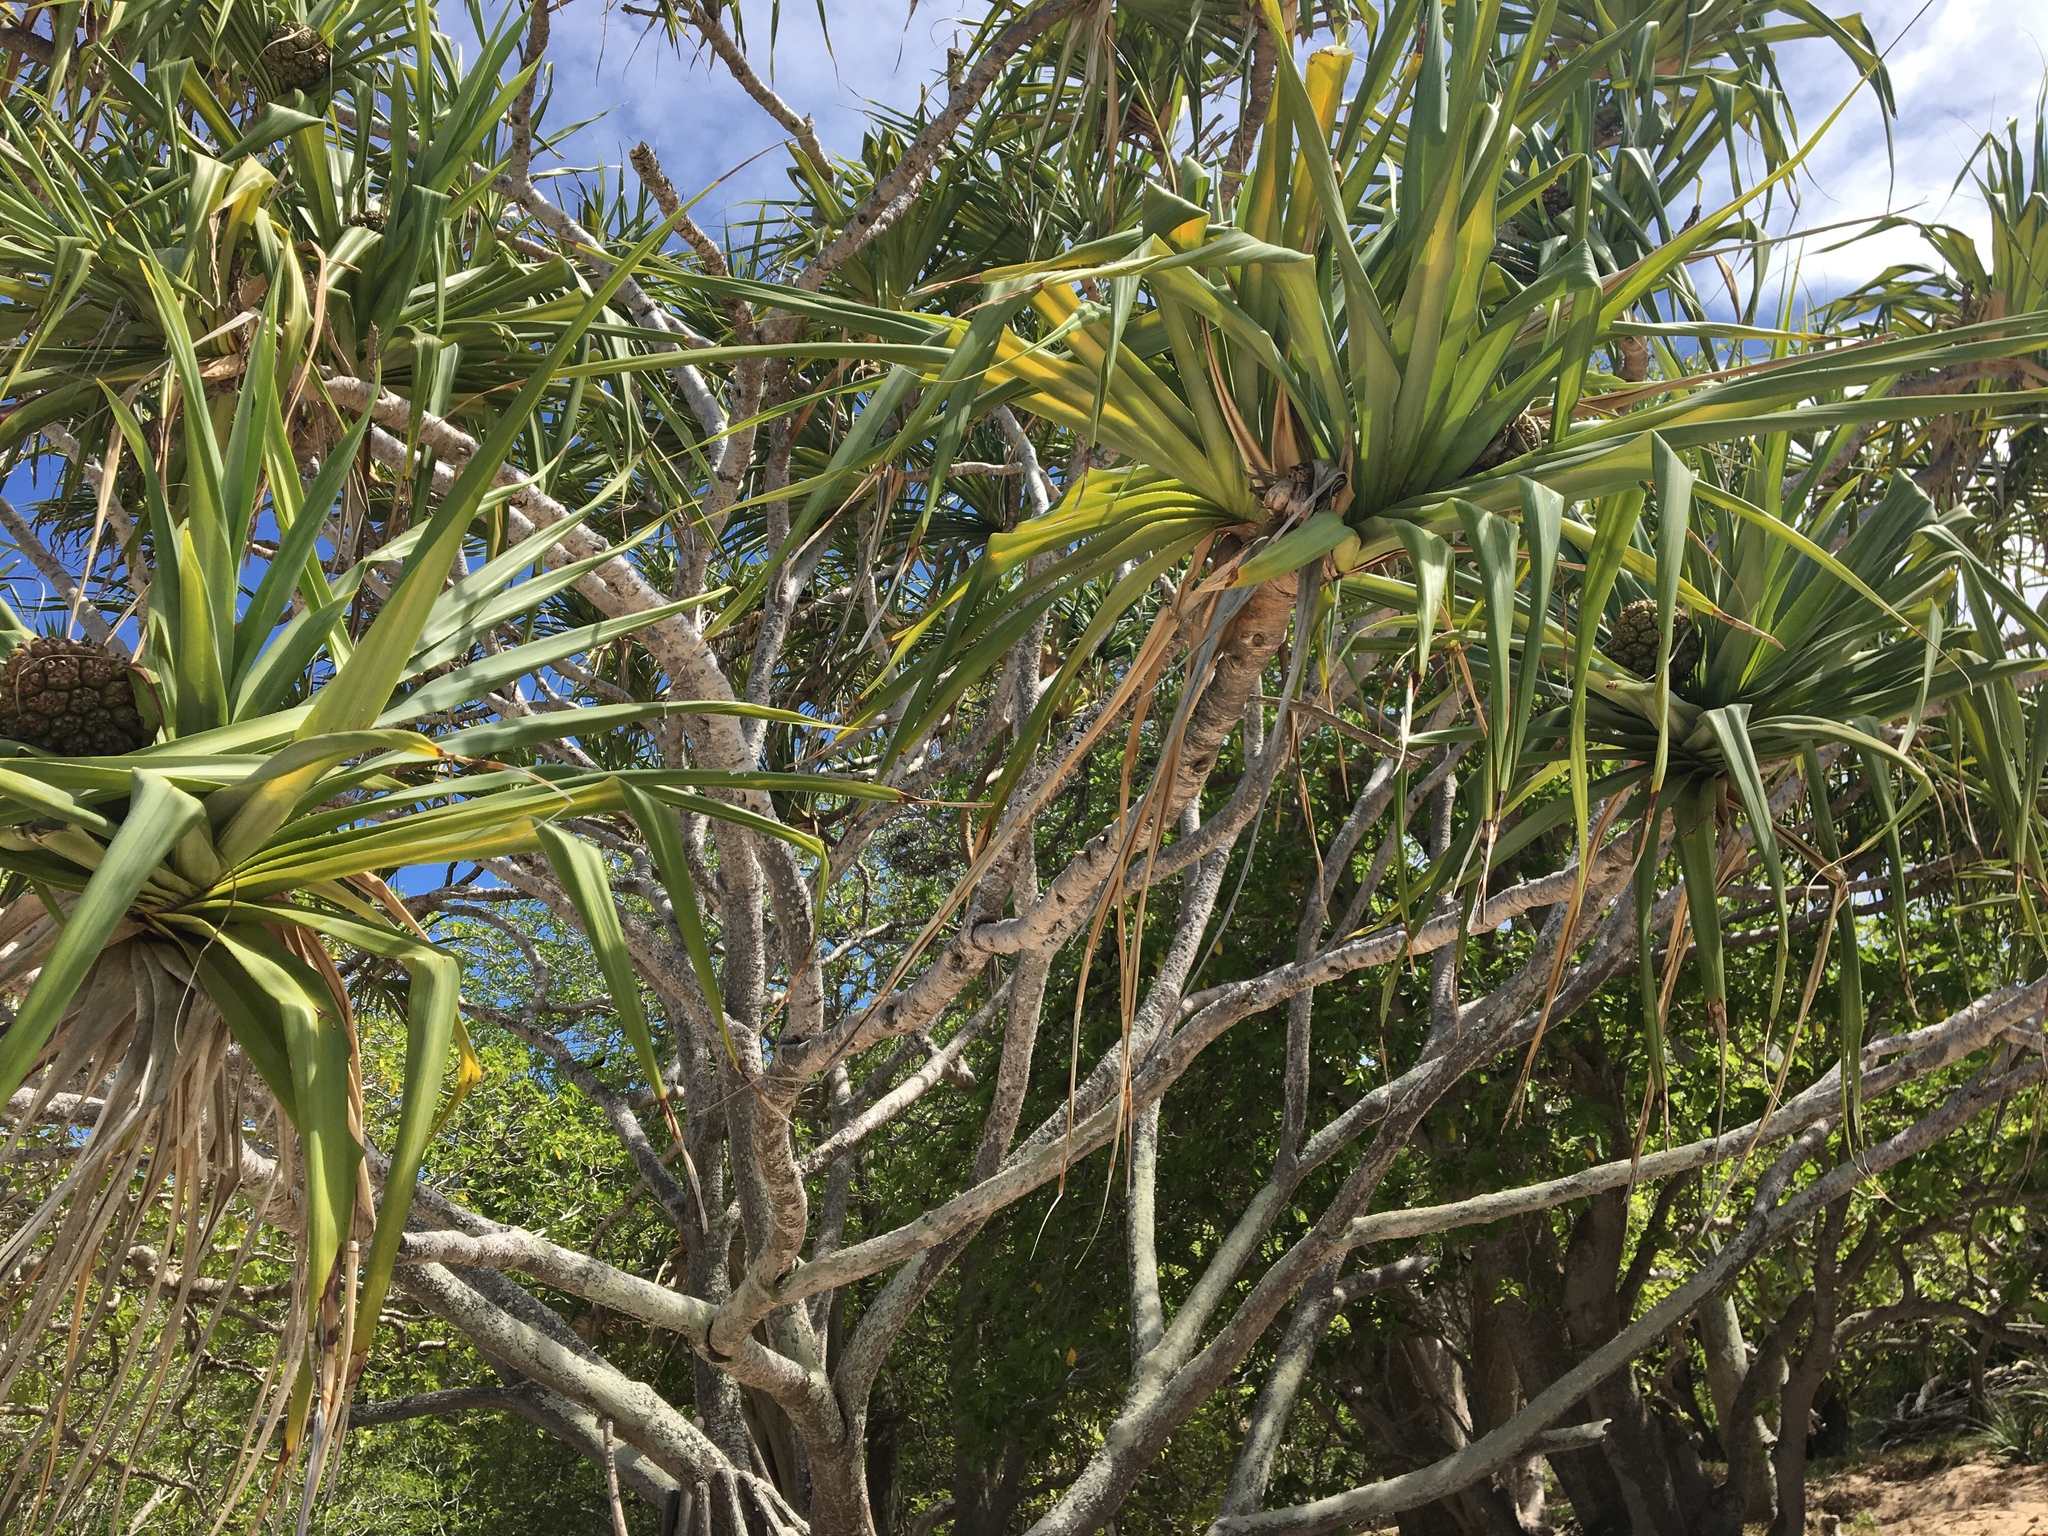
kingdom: Plantae
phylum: Tracheophyta
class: Liliopsida
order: Pandanales
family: Pandanaceae
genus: Pandanus
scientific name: Pandanus tectorius
